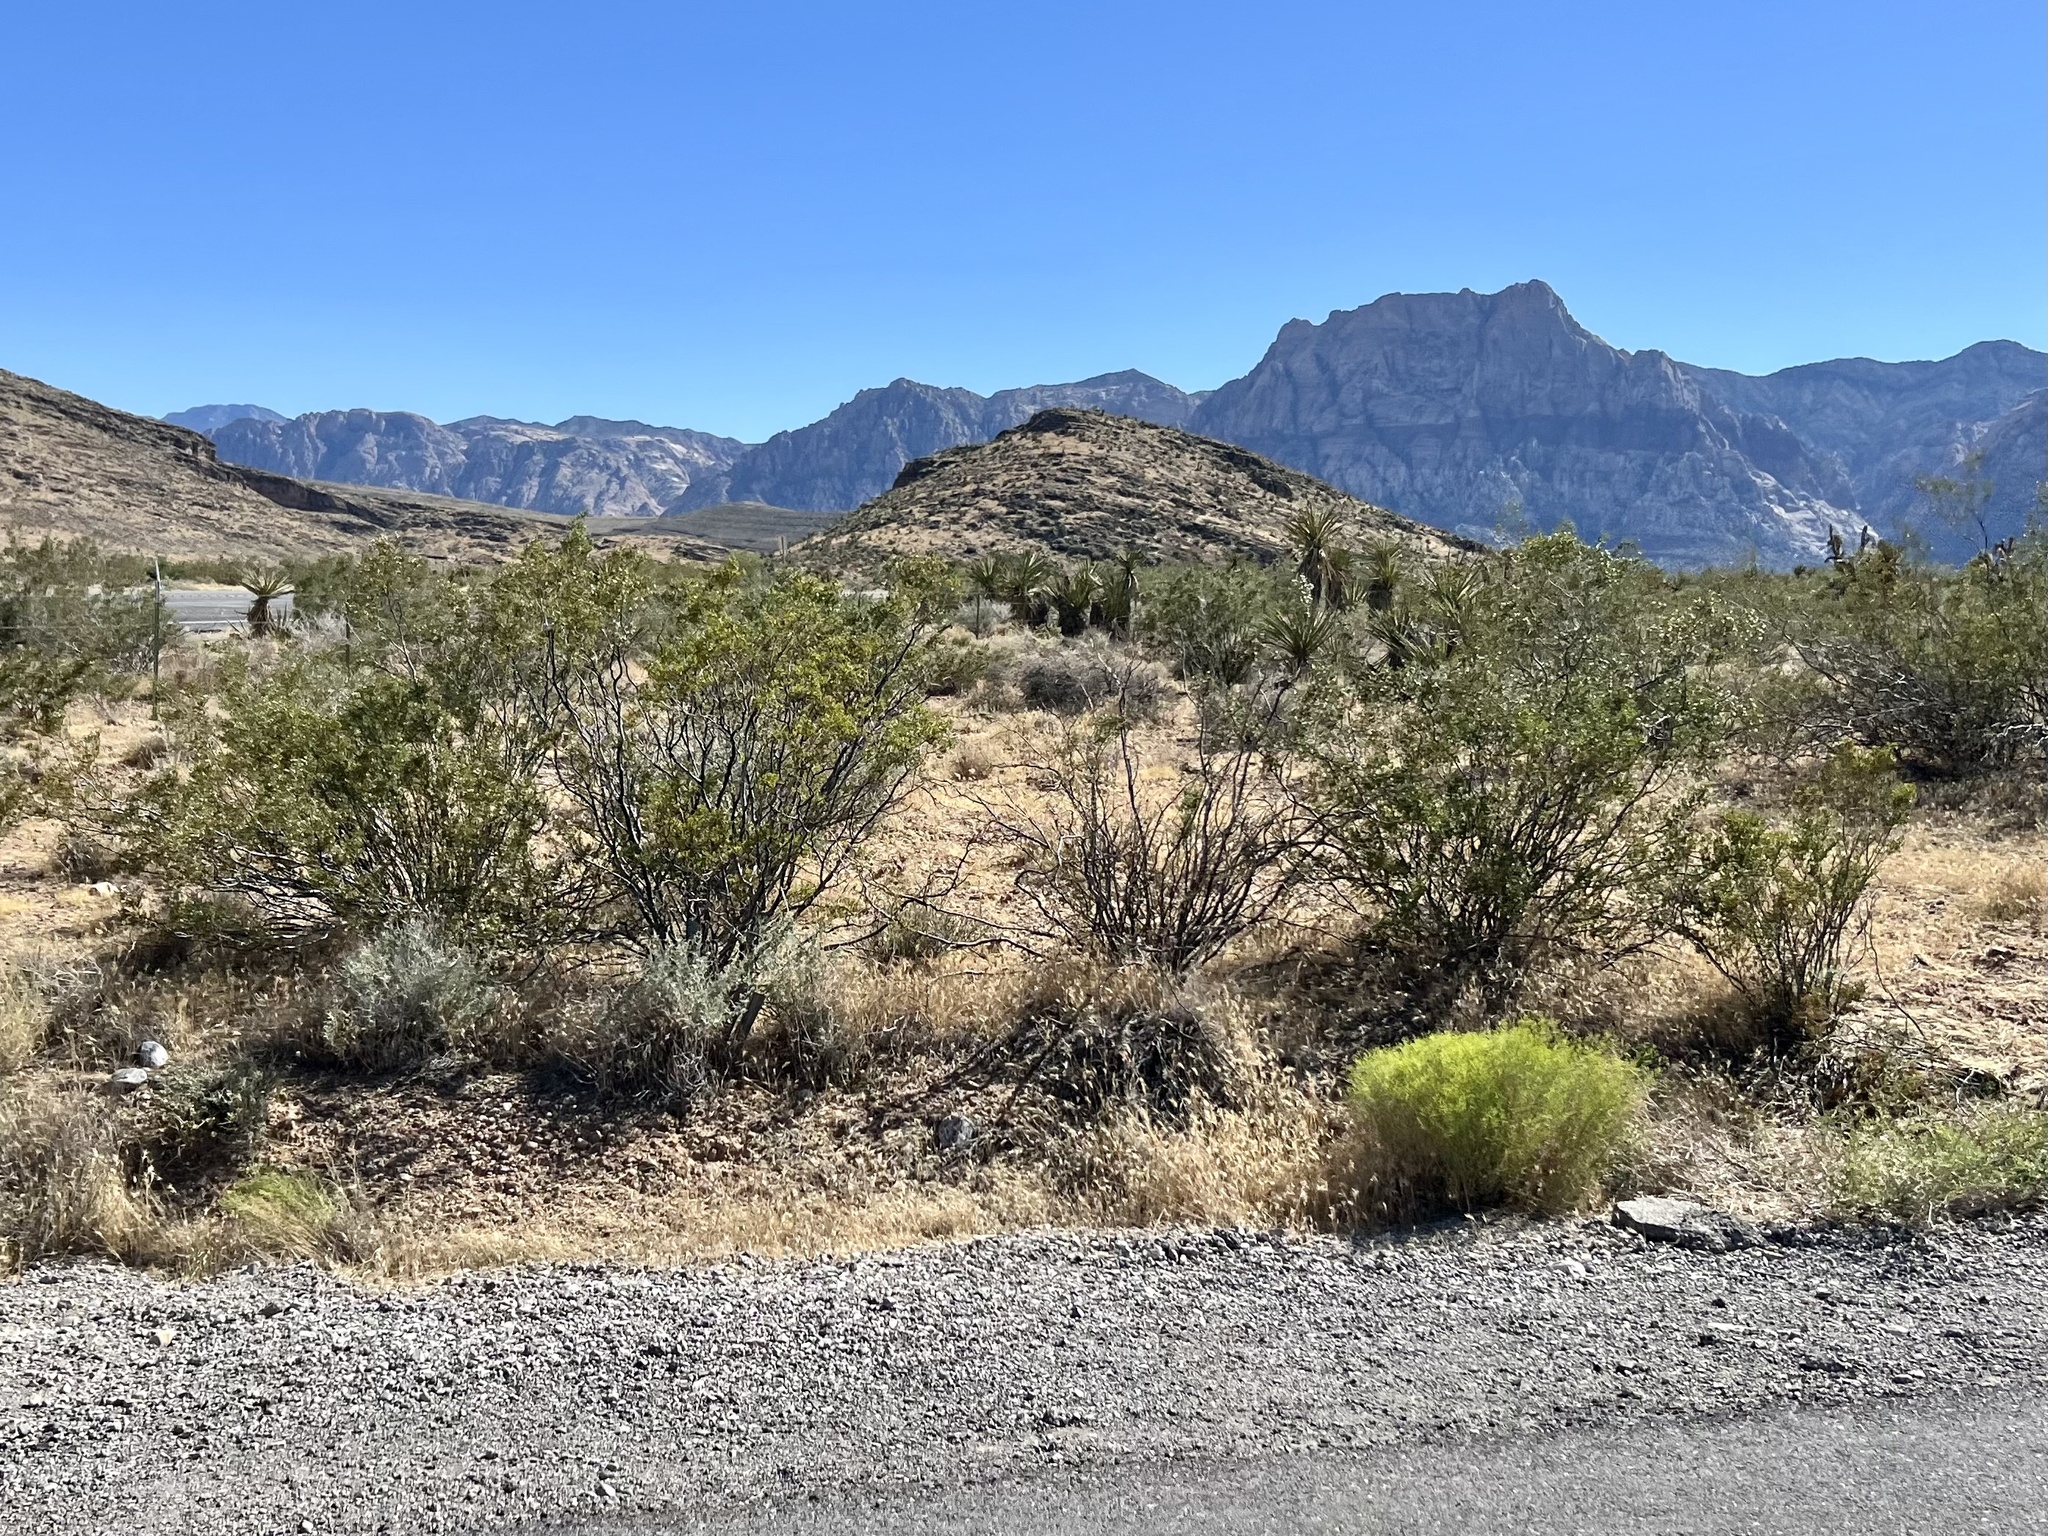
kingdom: Plantae
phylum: Tracheophyta
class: Magnoliopsida
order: Zygophyllales
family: Zygophyllaceae
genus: Larrea
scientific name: Larrea tridentata
